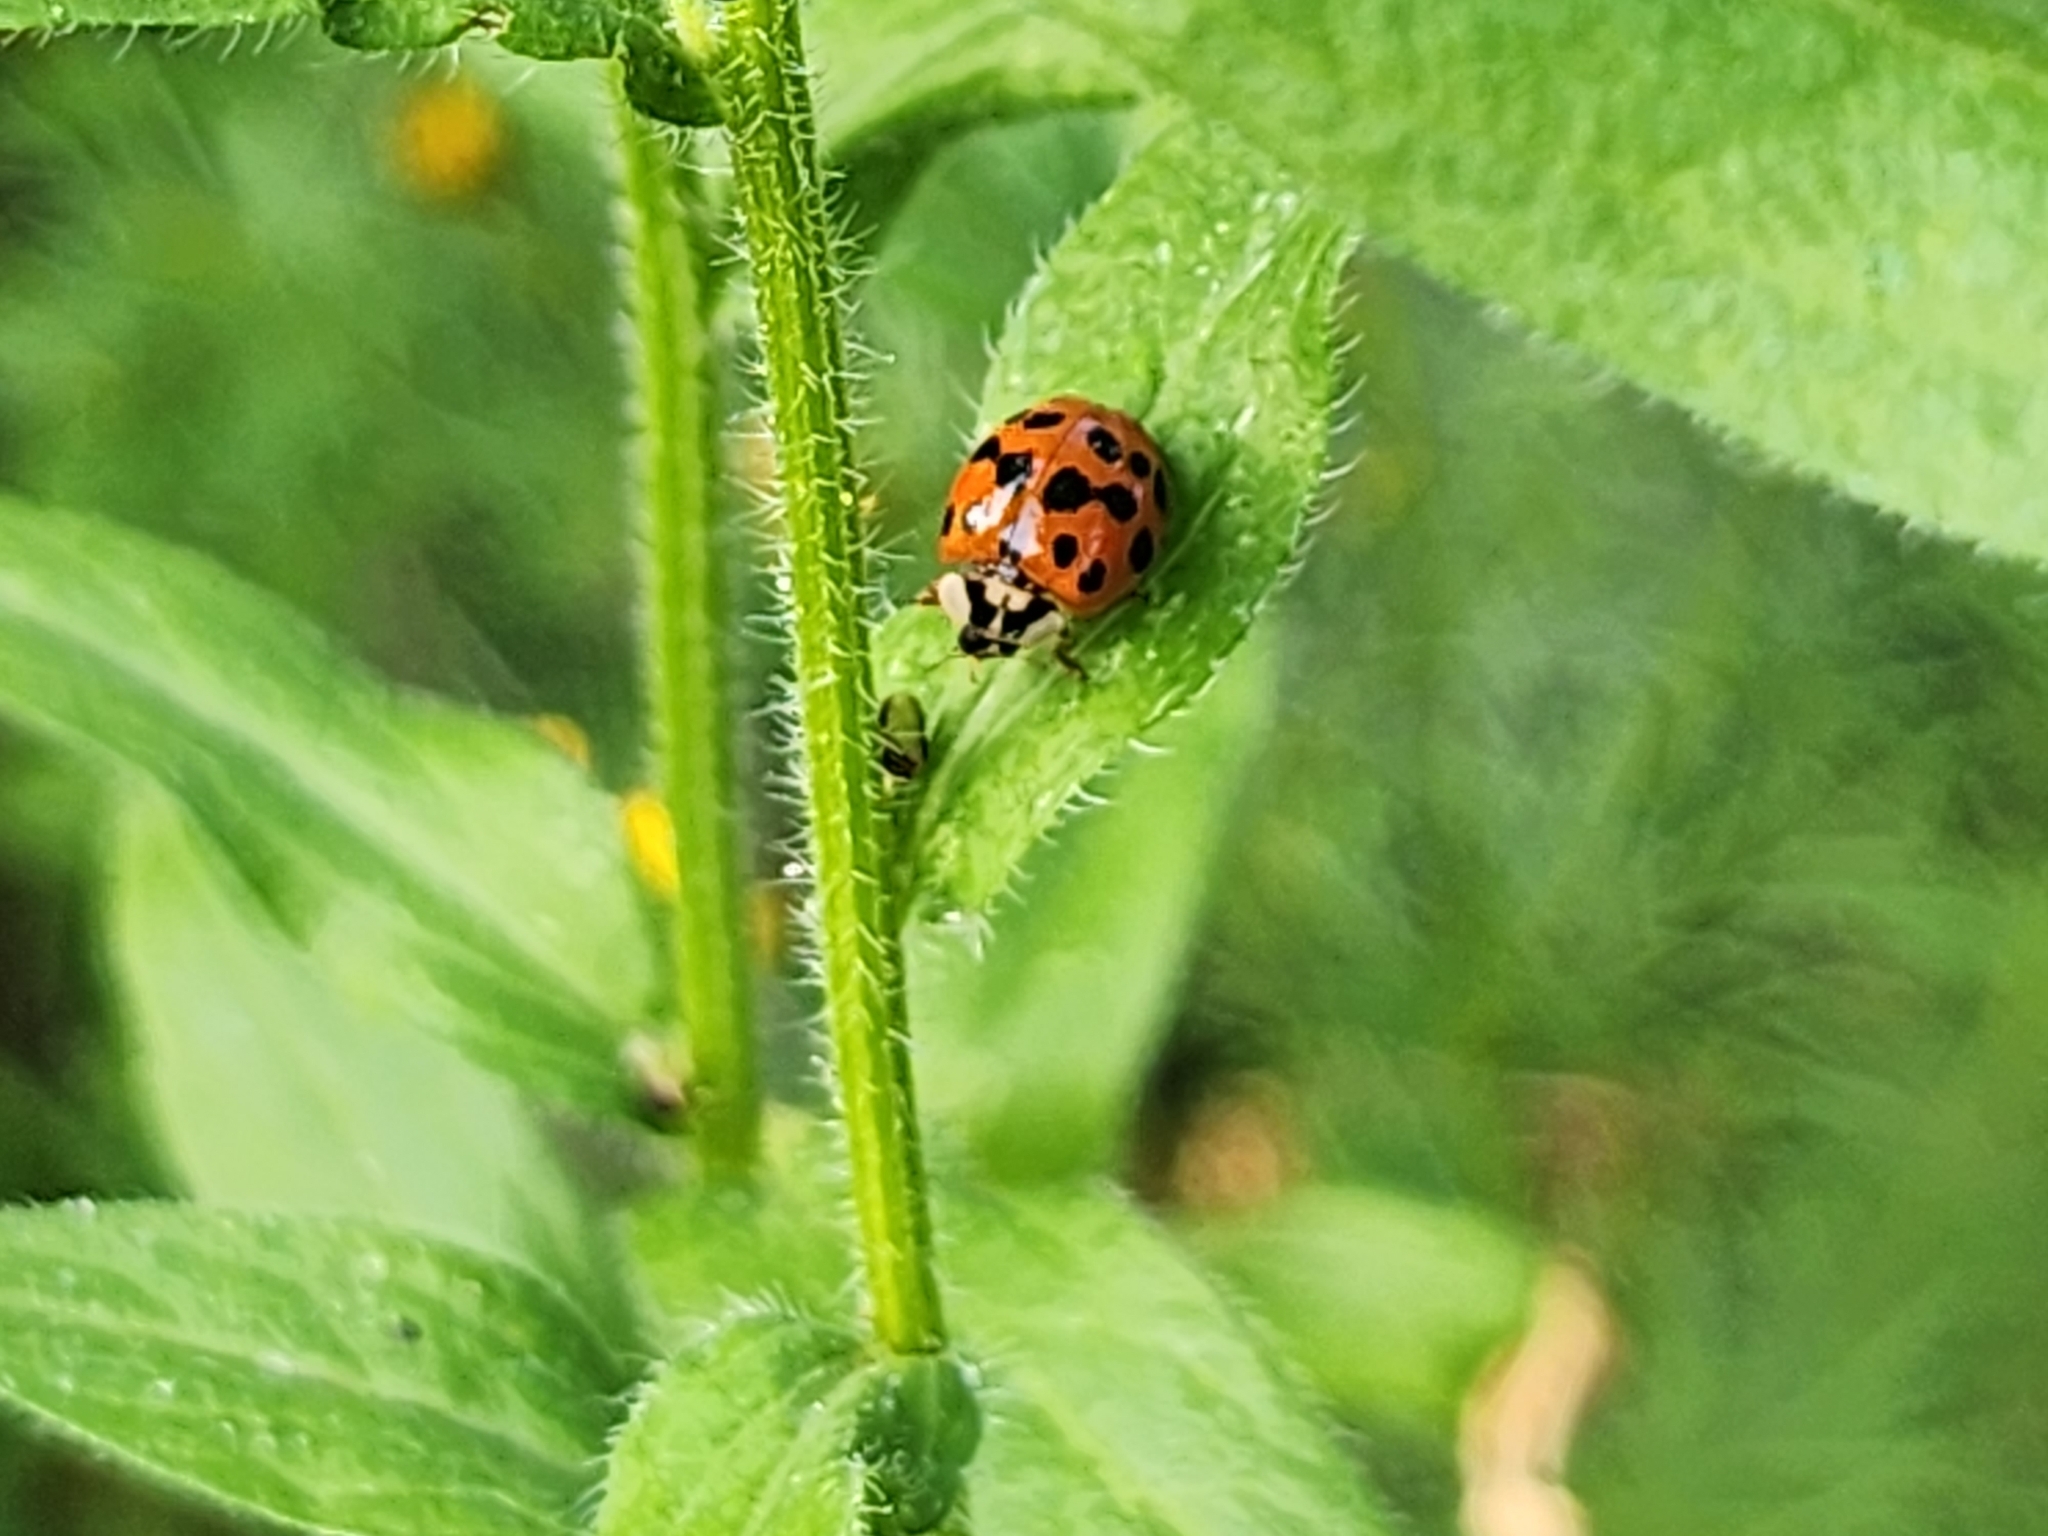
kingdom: Animalia
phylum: Arthropoda
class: Insecta
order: Coleoptera
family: Coccinellidae
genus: Harmonia
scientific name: Harmonia axyridis
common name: Harlequin ladybird
